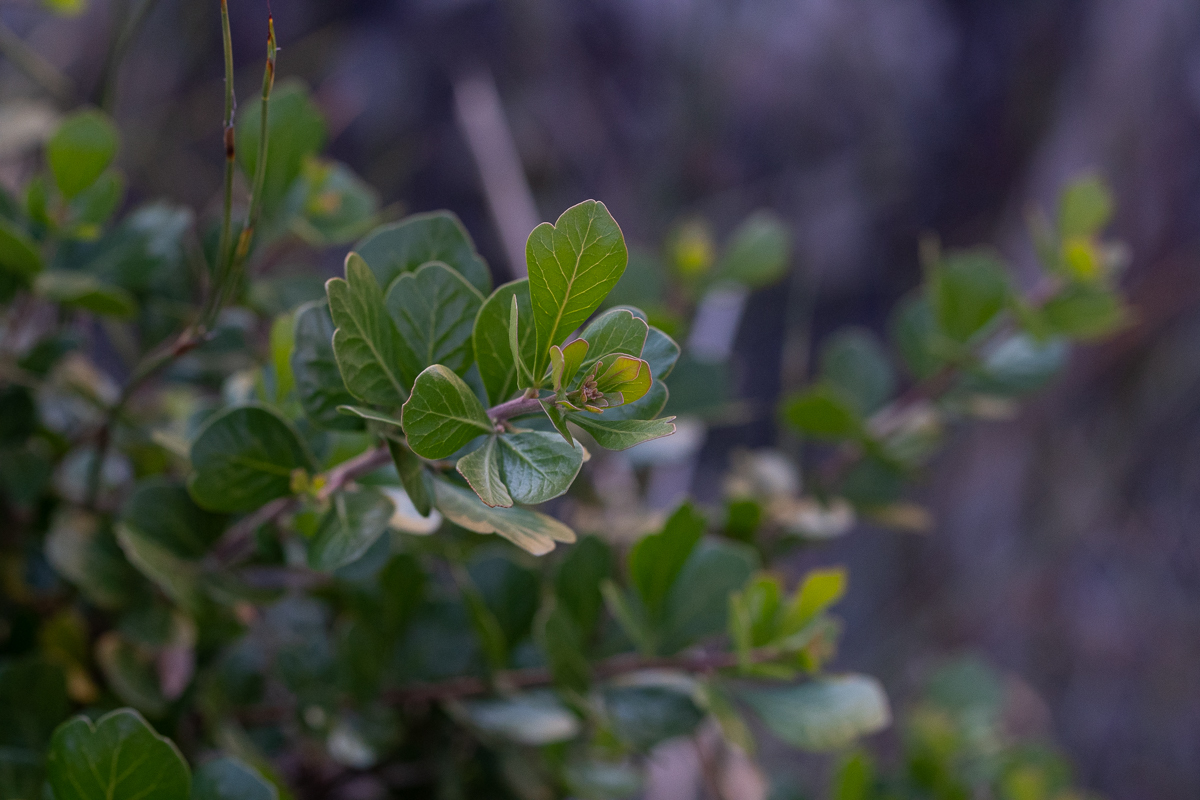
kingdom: Plantae
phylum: Tracheophyta
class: Magnoliopsida
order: Sapindales
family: Anacardiaceae
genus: Searsia
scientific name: Searsia lucida
